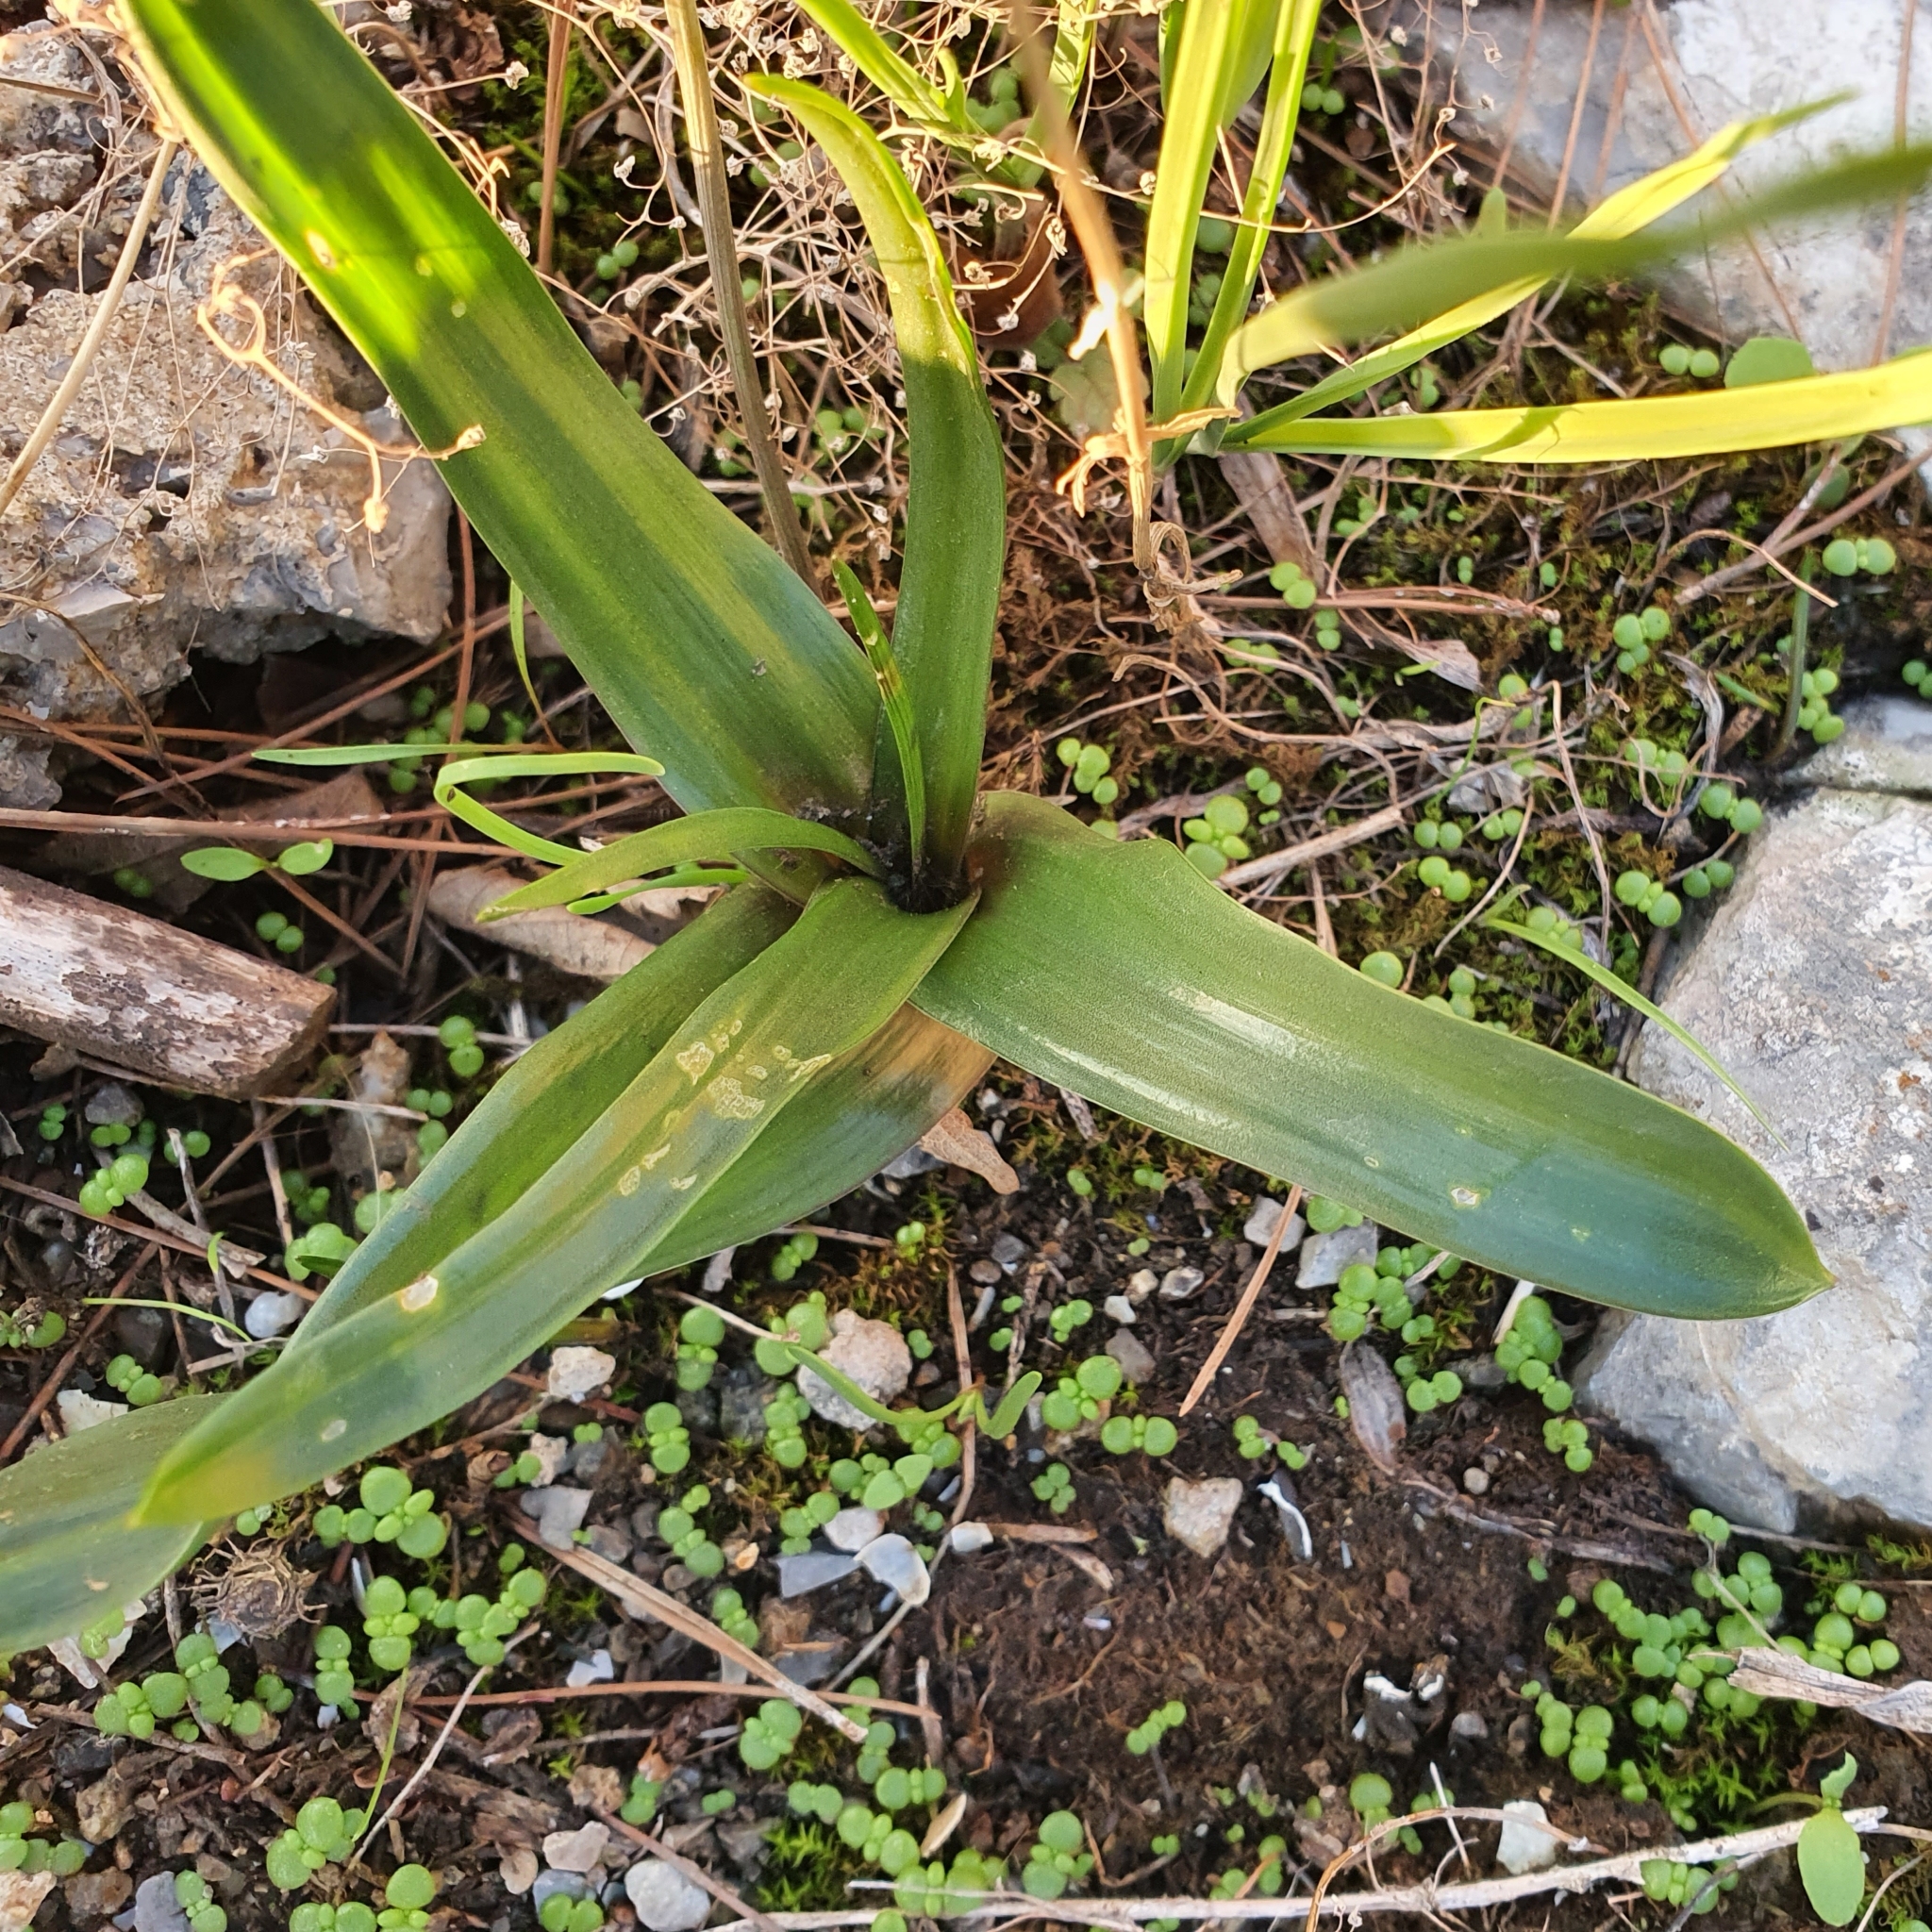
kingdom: Plantae
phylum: Tracheophyta
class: Liliopsida
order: Asparagales
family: Asparagaceae
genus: Prospero
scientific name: Prospero obtusifolium
